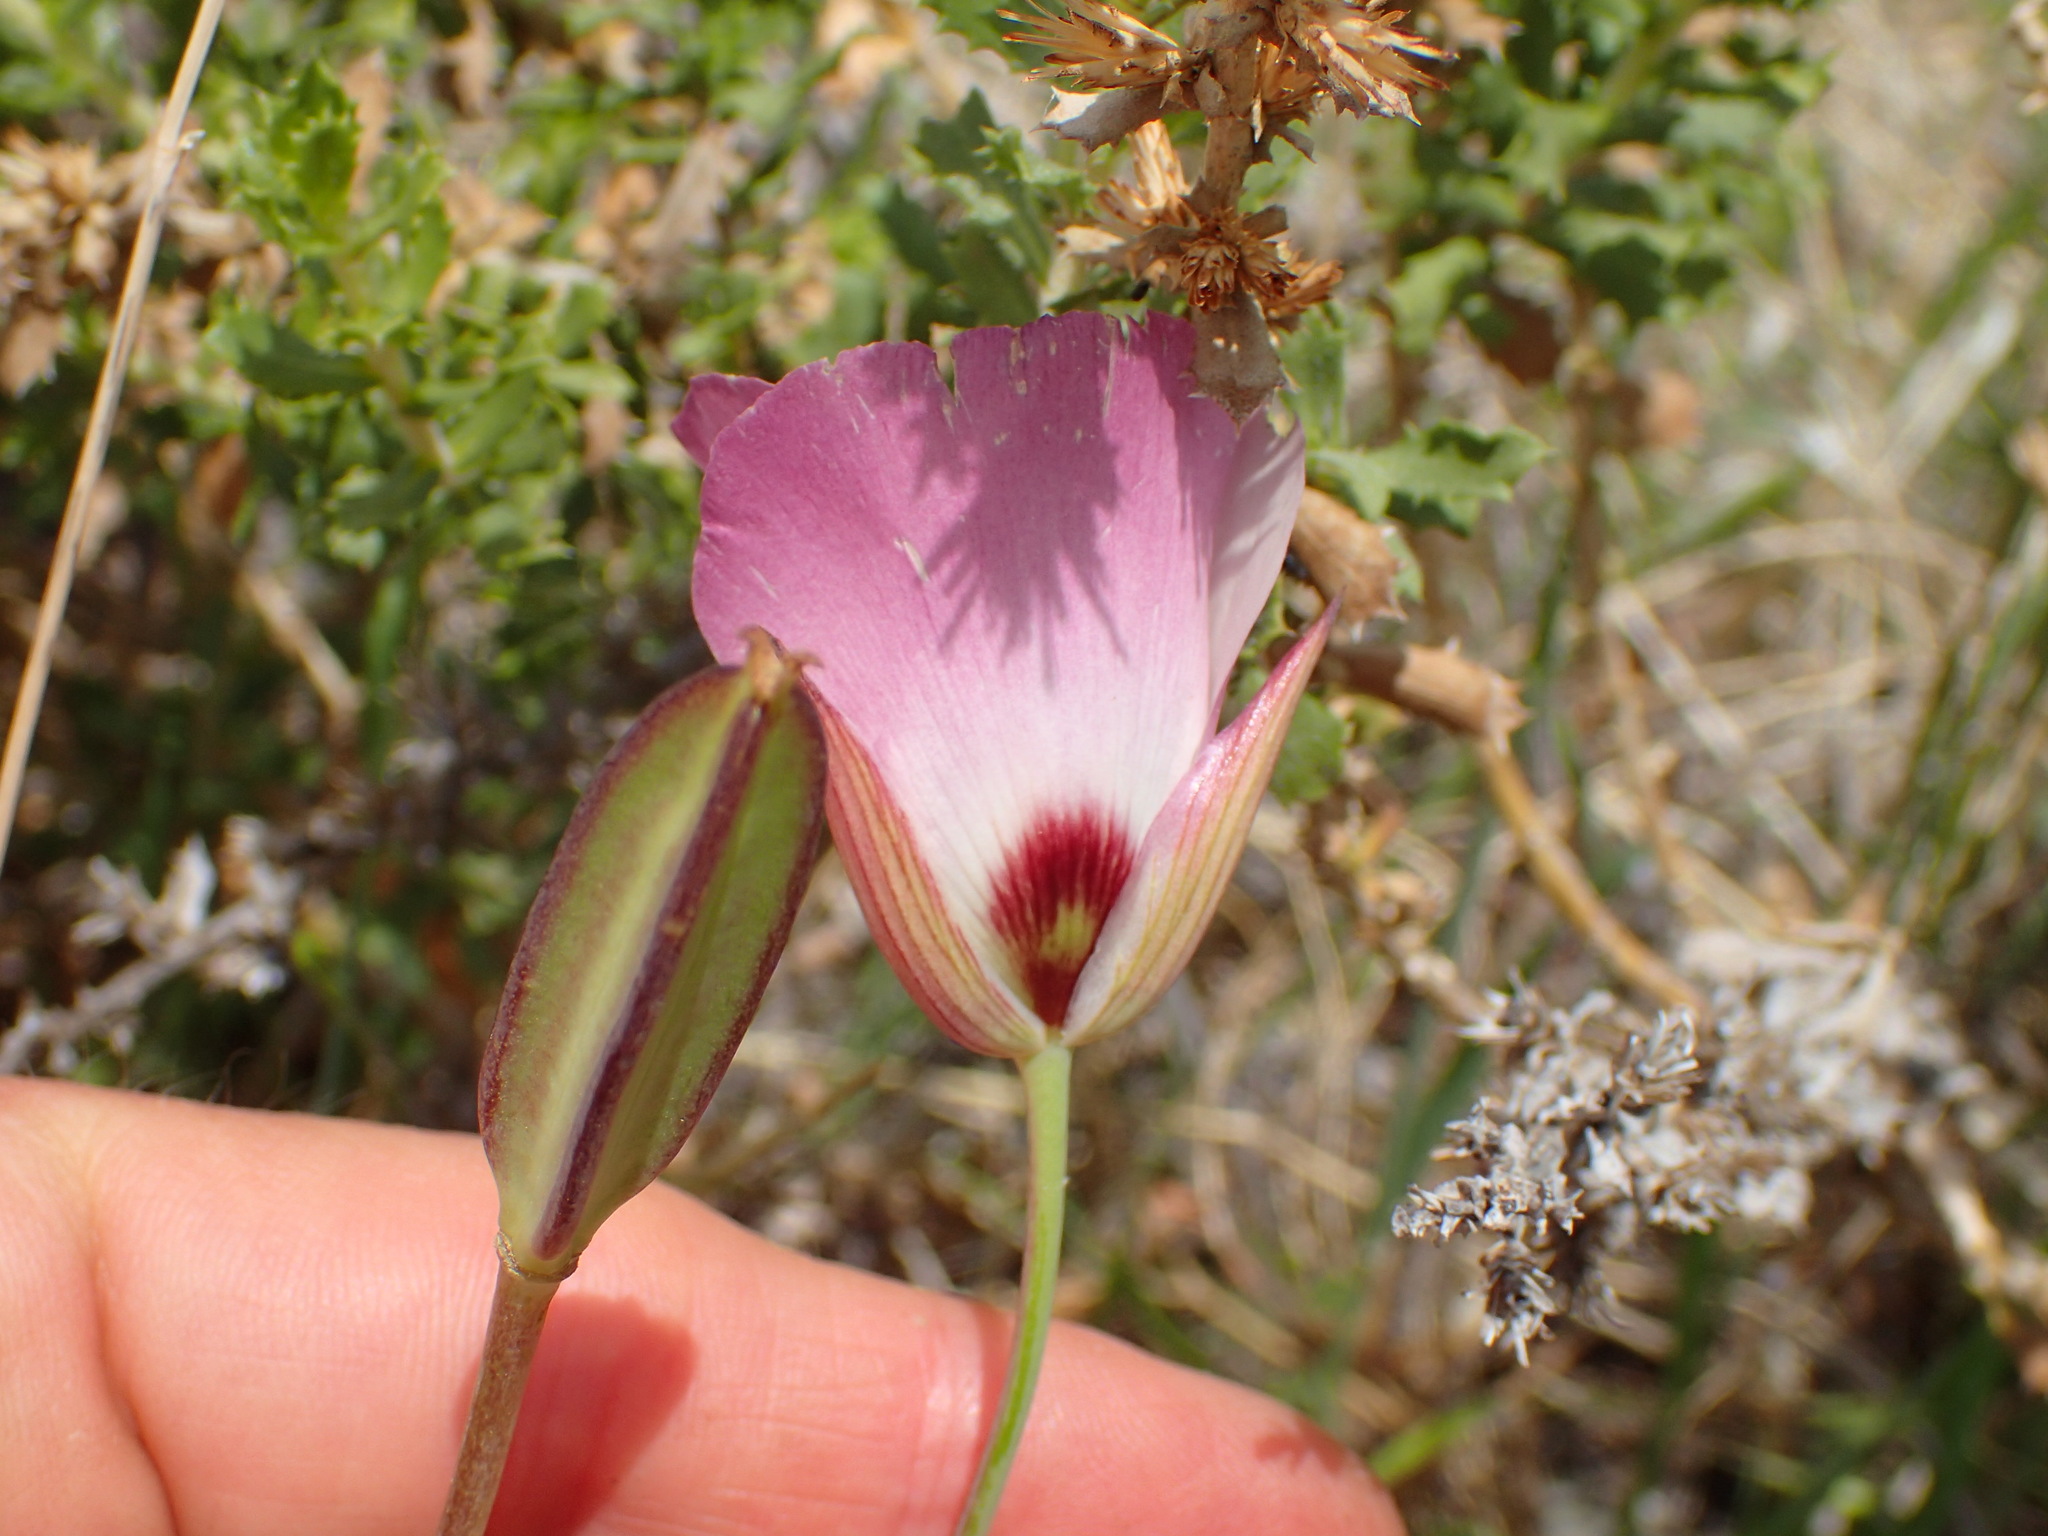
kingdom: Plantae
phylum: Tracheophyta
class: Liliopsida
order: Liliales
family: Liliaceae
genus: Calochortus
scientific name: Calochortus catalinae
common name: Catalina mariposa-lily
